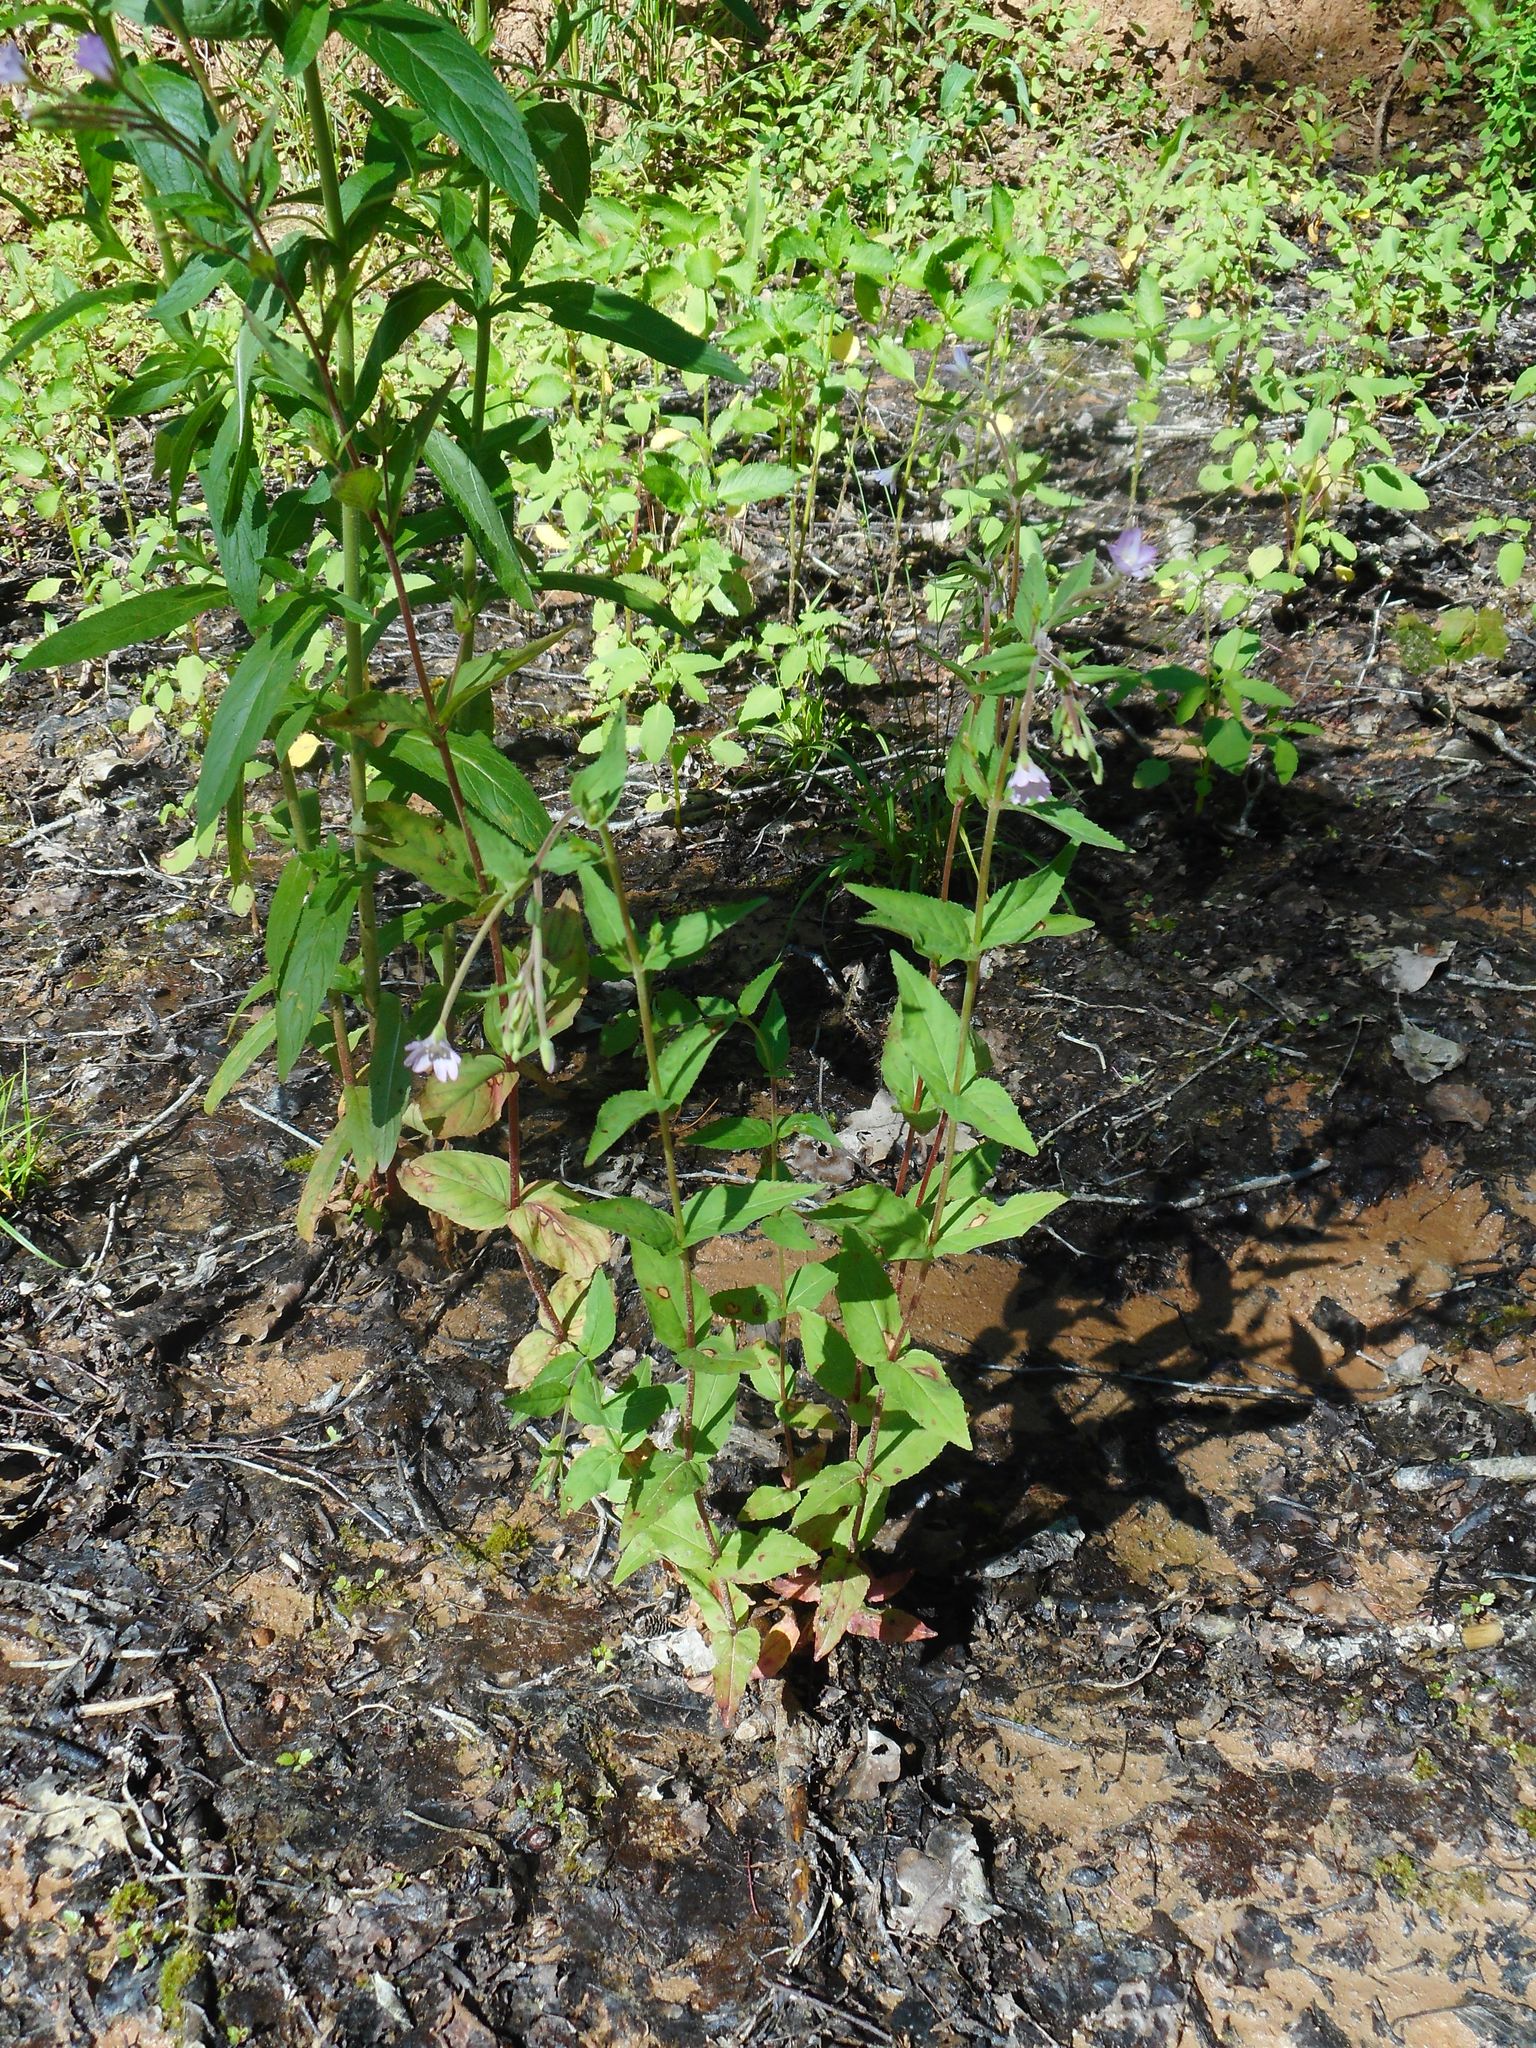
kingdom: Plantae
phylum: Tracheophyta
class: Magnoliopsida
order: Myrtales
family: Onagraceae
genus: Epilobium
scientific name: Epilobium montanum
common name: Broad-leaved willowherb
